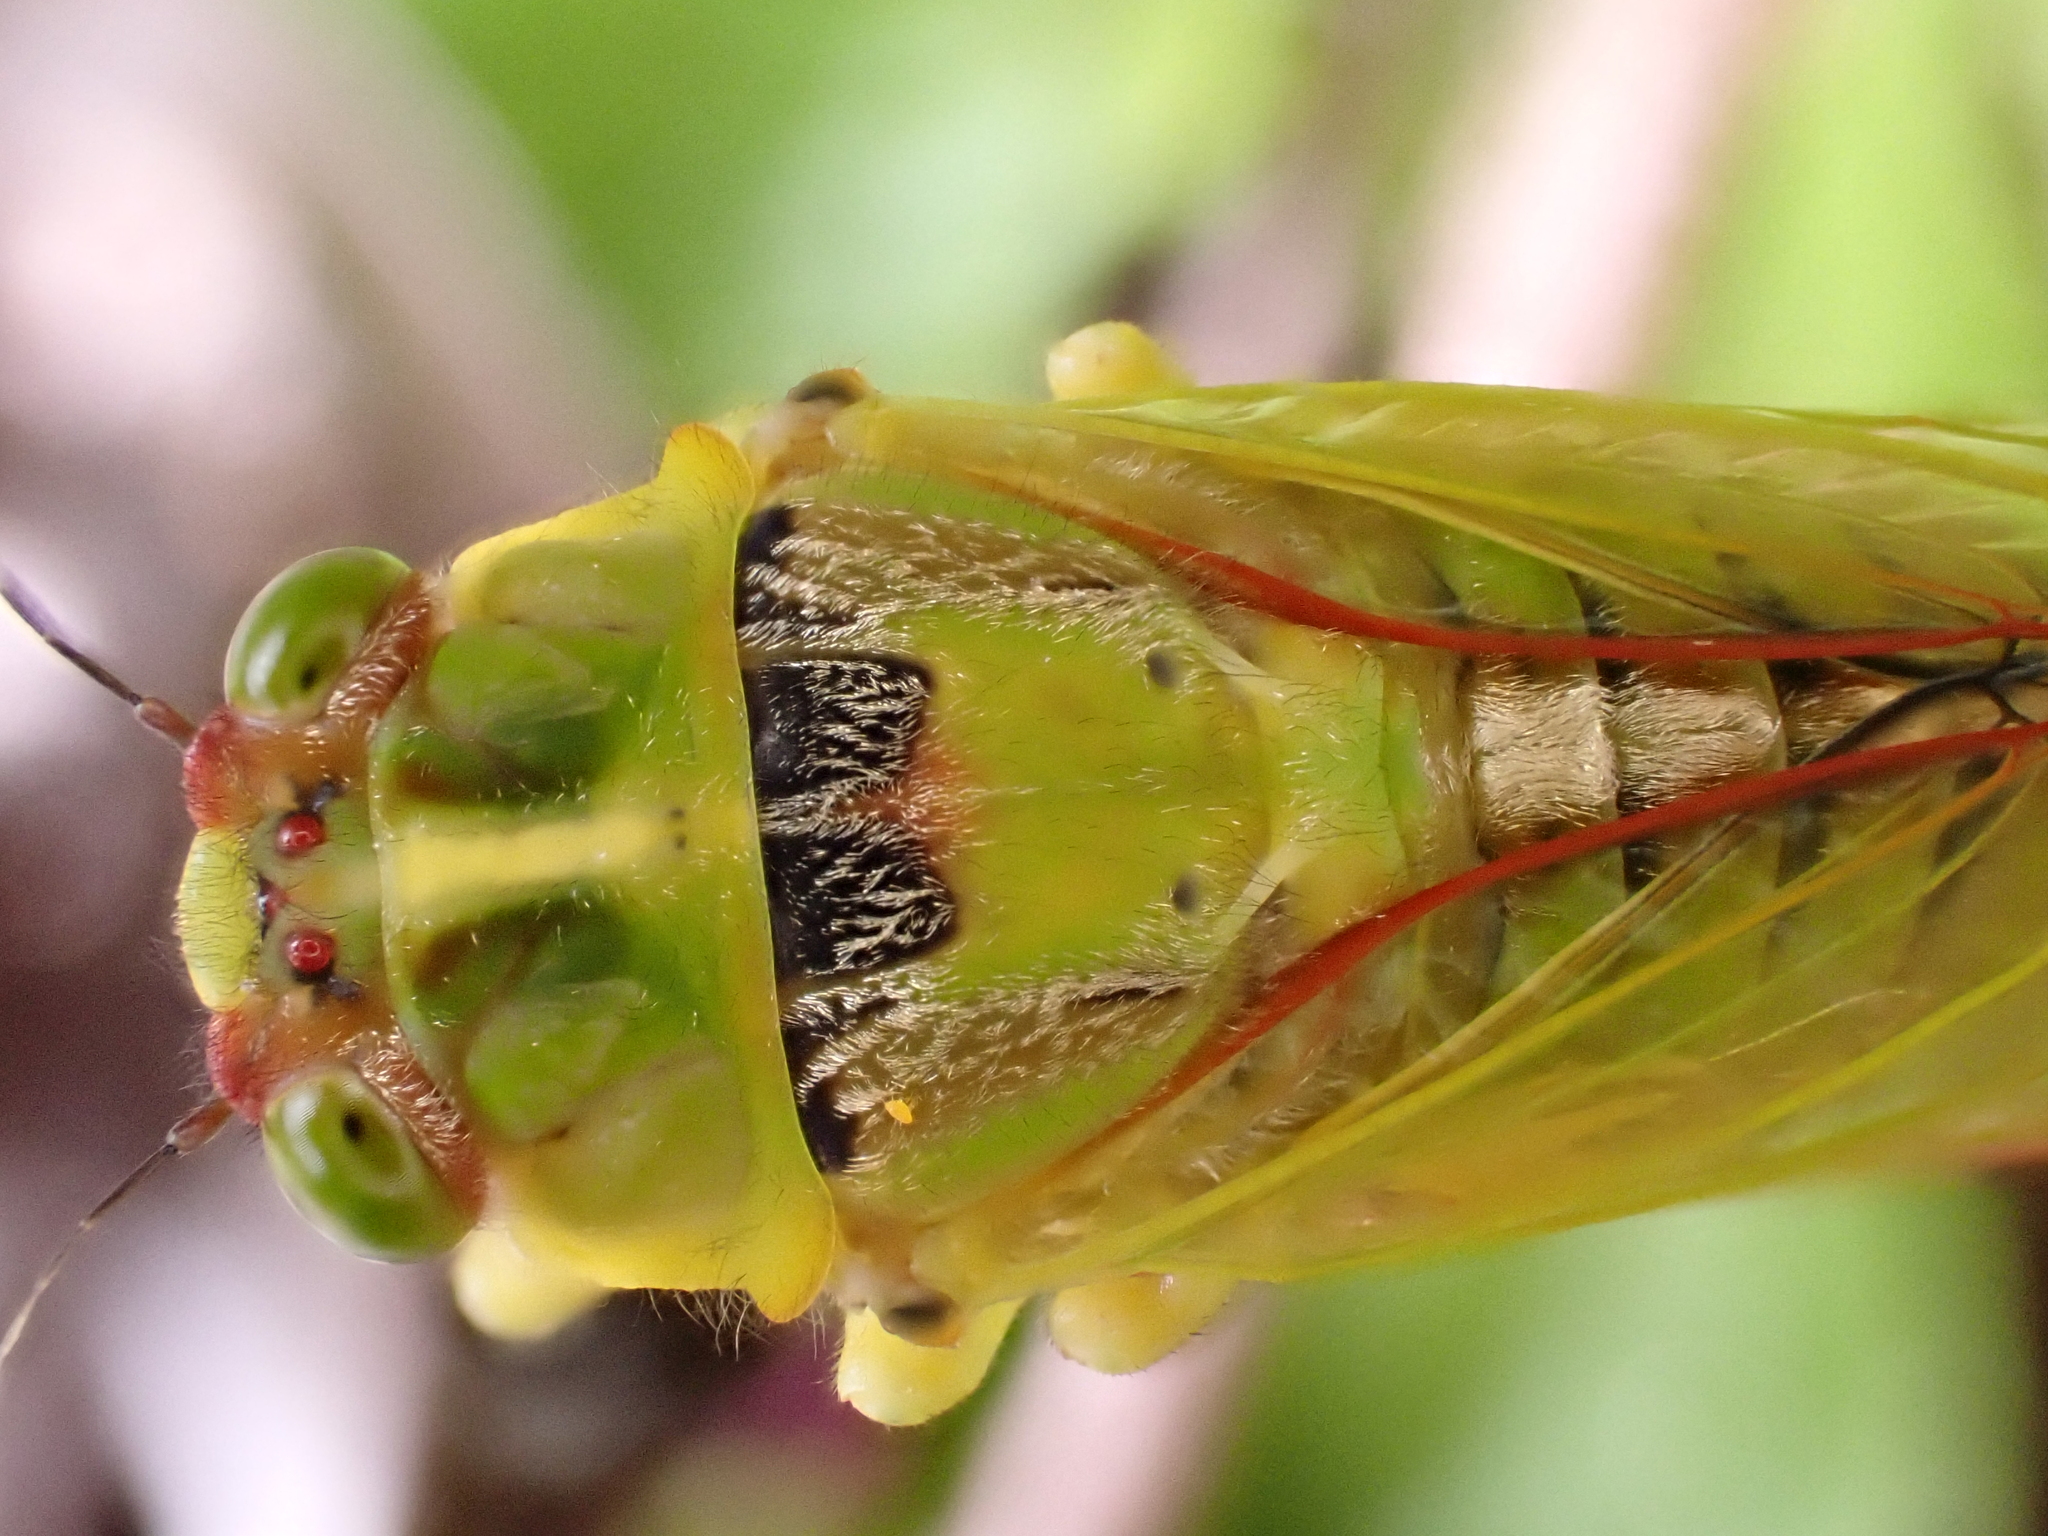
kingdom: Animalia
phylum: Arthropoda
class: Insecta
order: Hemiptera
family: Cicadidae
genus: Kikihia
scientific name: Kikihia subalpina
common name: Chathams cicada
